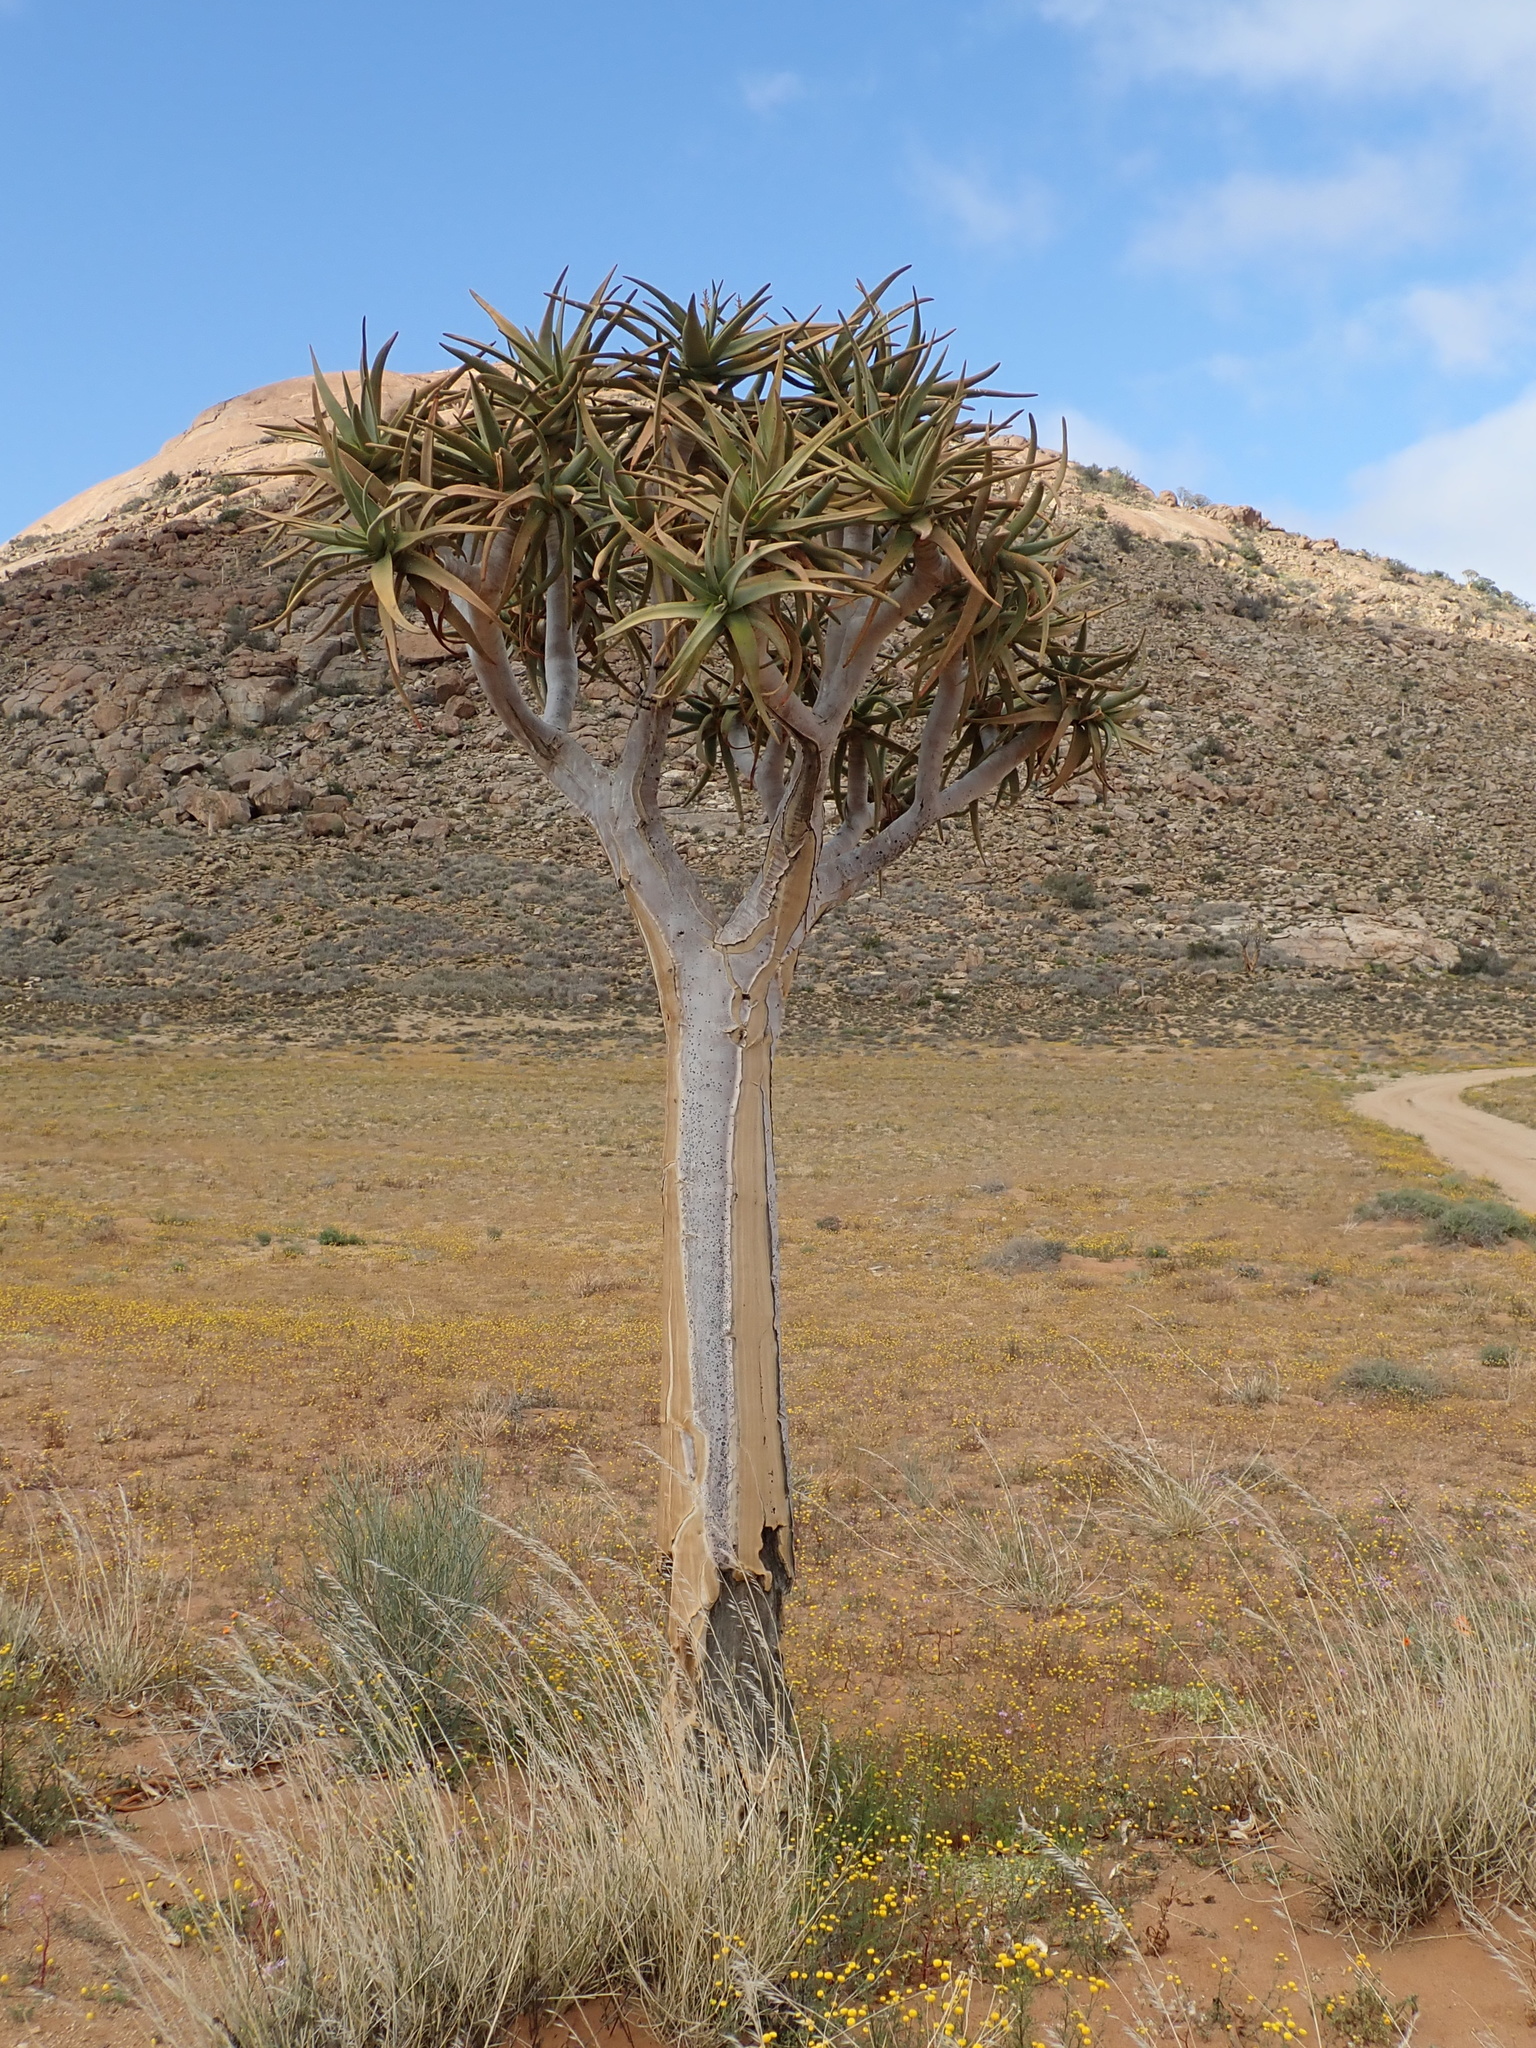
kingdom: Plantae
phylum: Tracheophyta
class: Liliopsida
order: Asparagales
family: Asphodelaceae
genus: Aloidendron
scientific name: Aloidendron dichotomum
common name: Quiver tree
